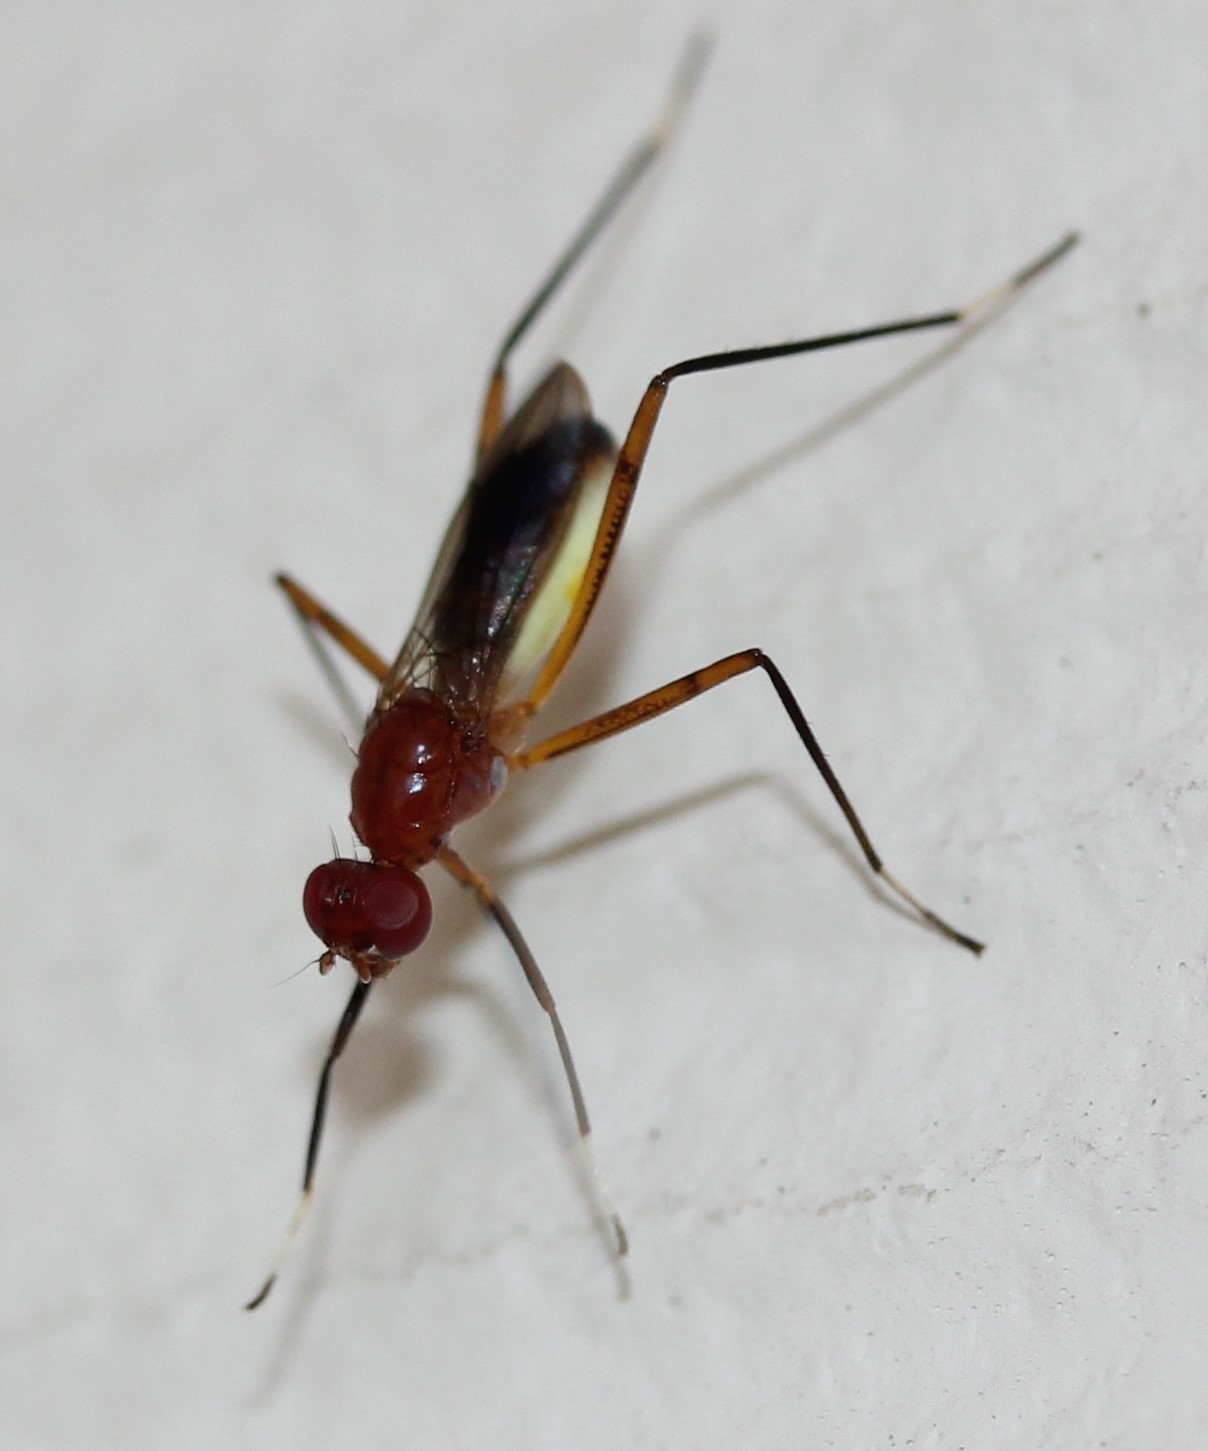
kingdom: Animalia
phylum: Arthropoda
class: Insecta
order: Diptera
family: Micropezidae
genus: Grallipeza
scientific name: Grallipeza nebulosa
